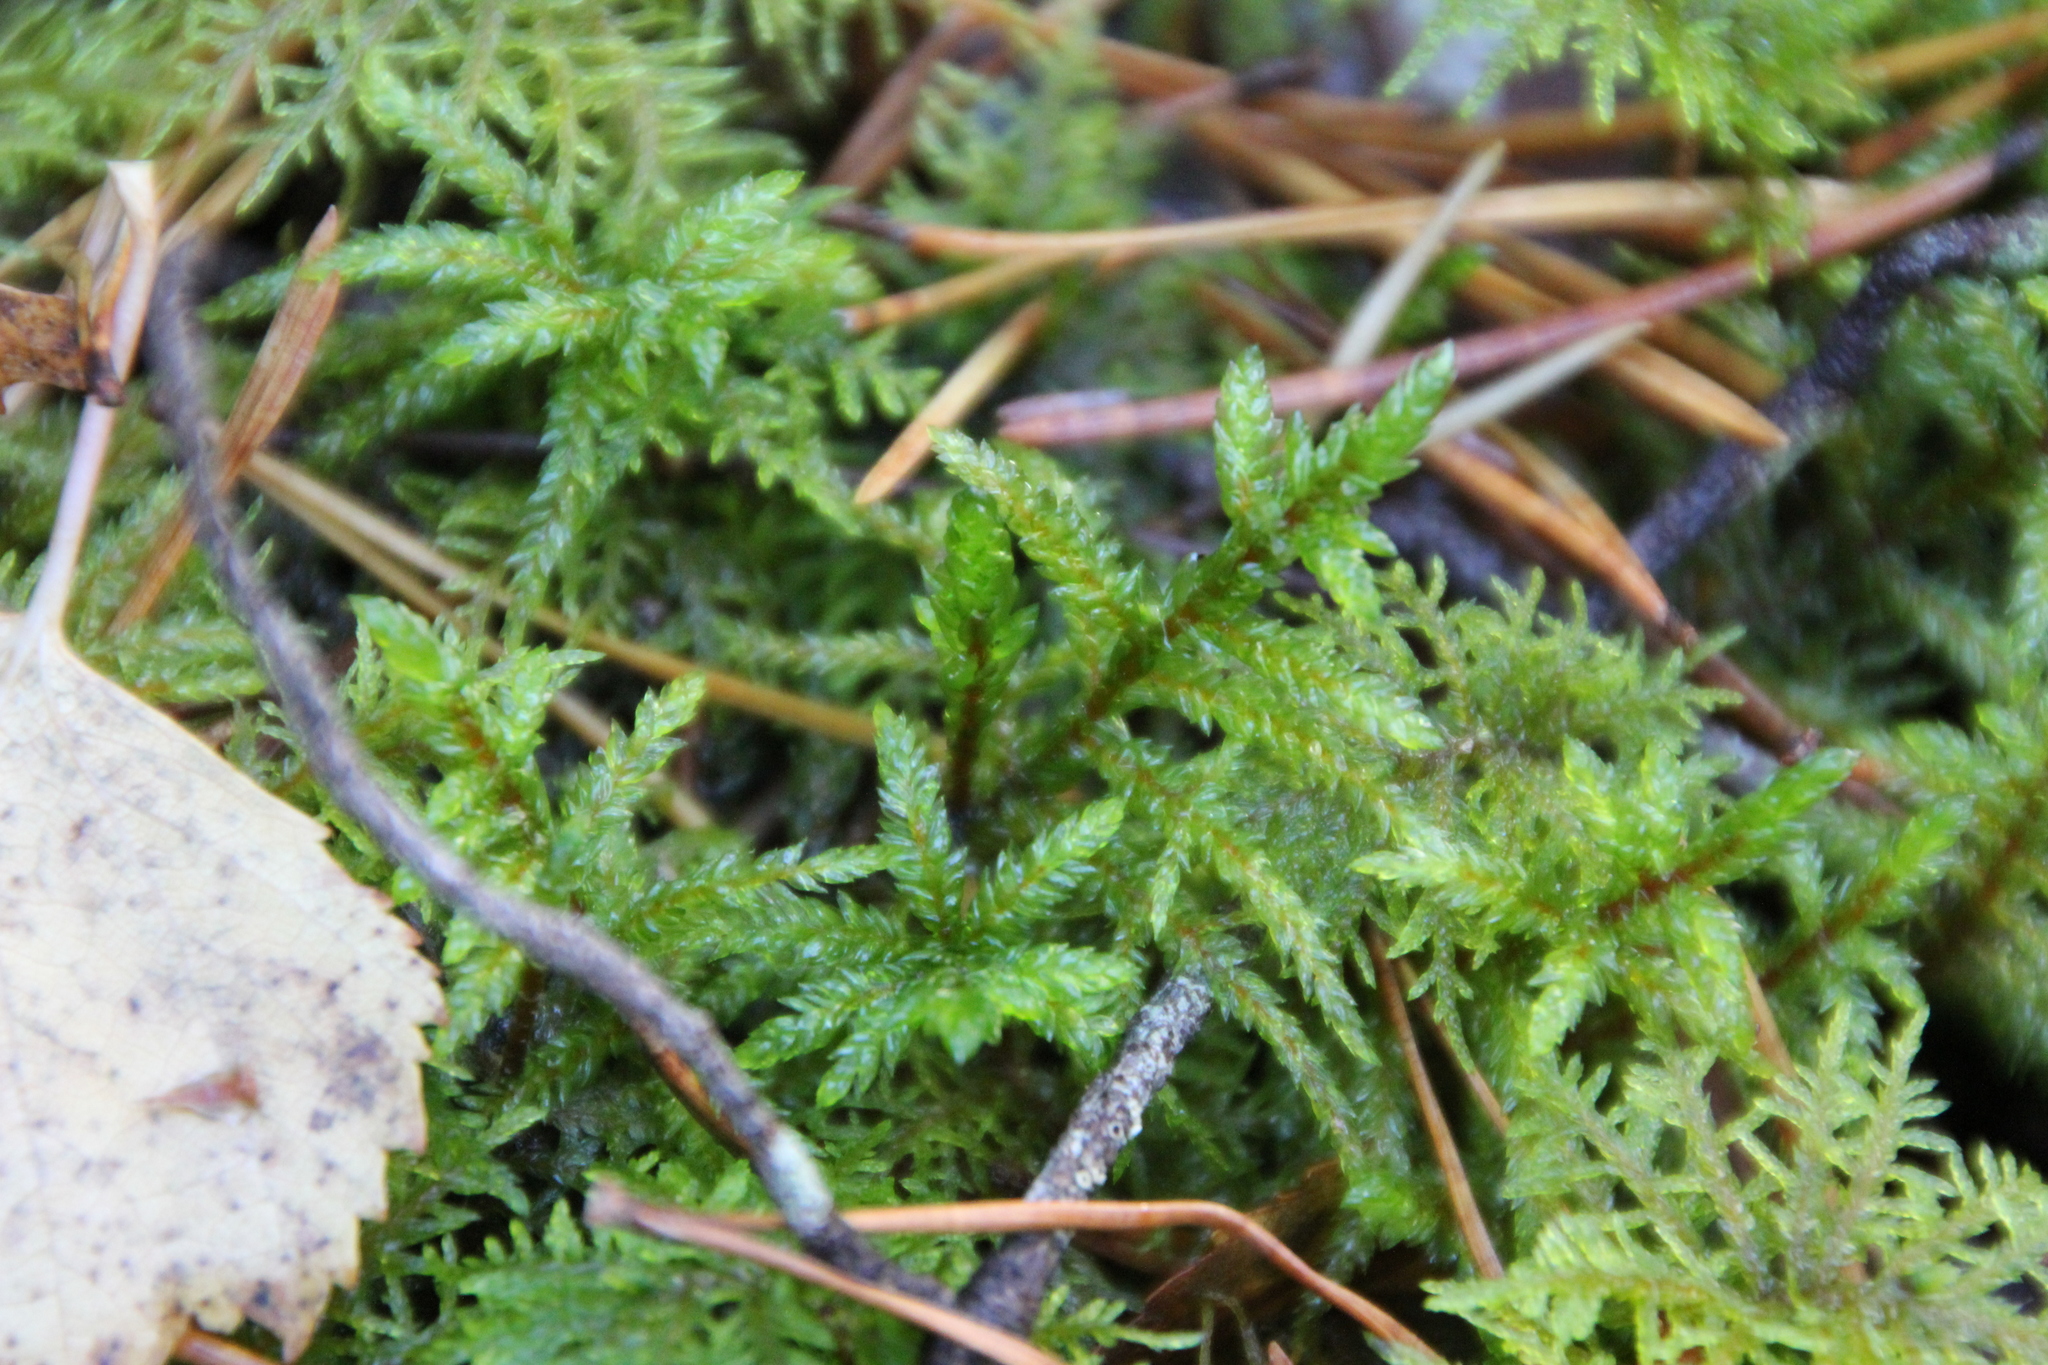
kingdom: Plantae
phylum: Bryophyta
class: Bryopsida
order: Hypnales
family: Hylocomiaceae
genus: Pleurozium
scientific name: Pleurozium schreberi
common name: Red-stemmed feather moss
